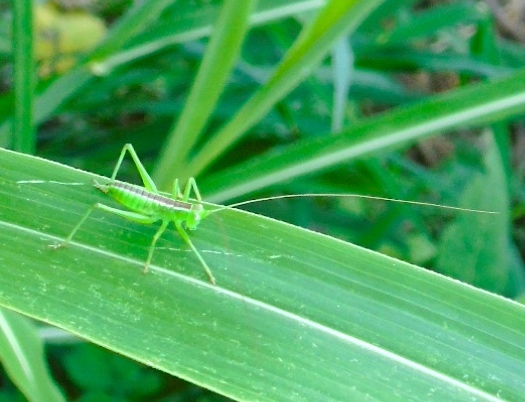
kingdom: Animalia
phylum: Arthropoda
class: Insecta
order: Orthoptera
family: Tettigoniidae
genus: Neobarrettia
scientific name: Neobarrettia sinaloae
